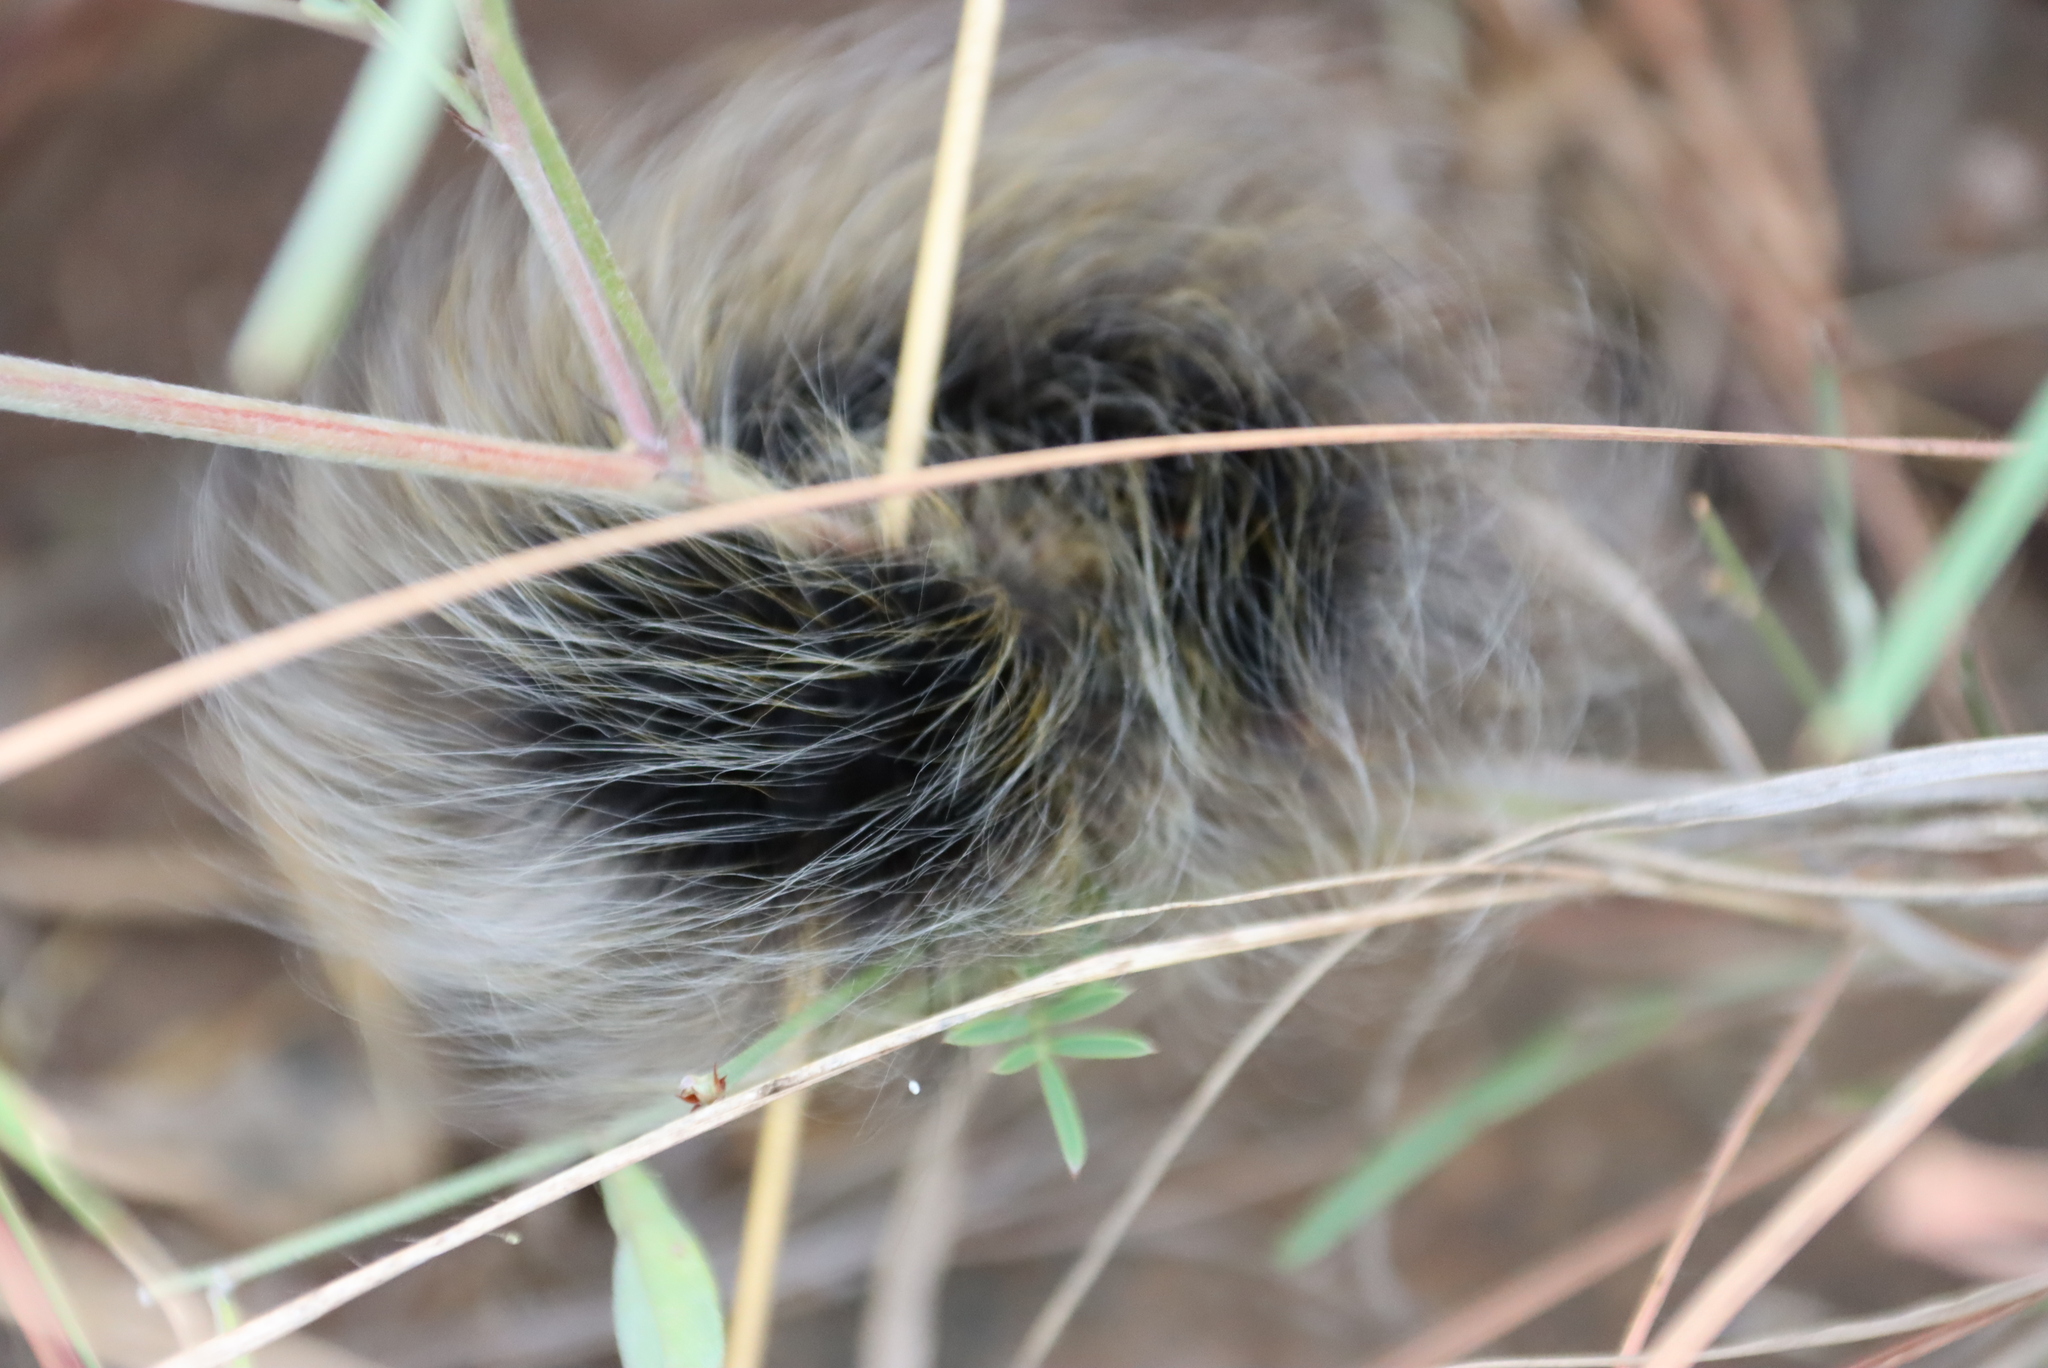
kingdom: Animalia
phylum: Arthropoda
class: Insecta
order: Lepidoptera
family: Eupterotidae
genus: Janomima
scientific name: Janomima mariana
